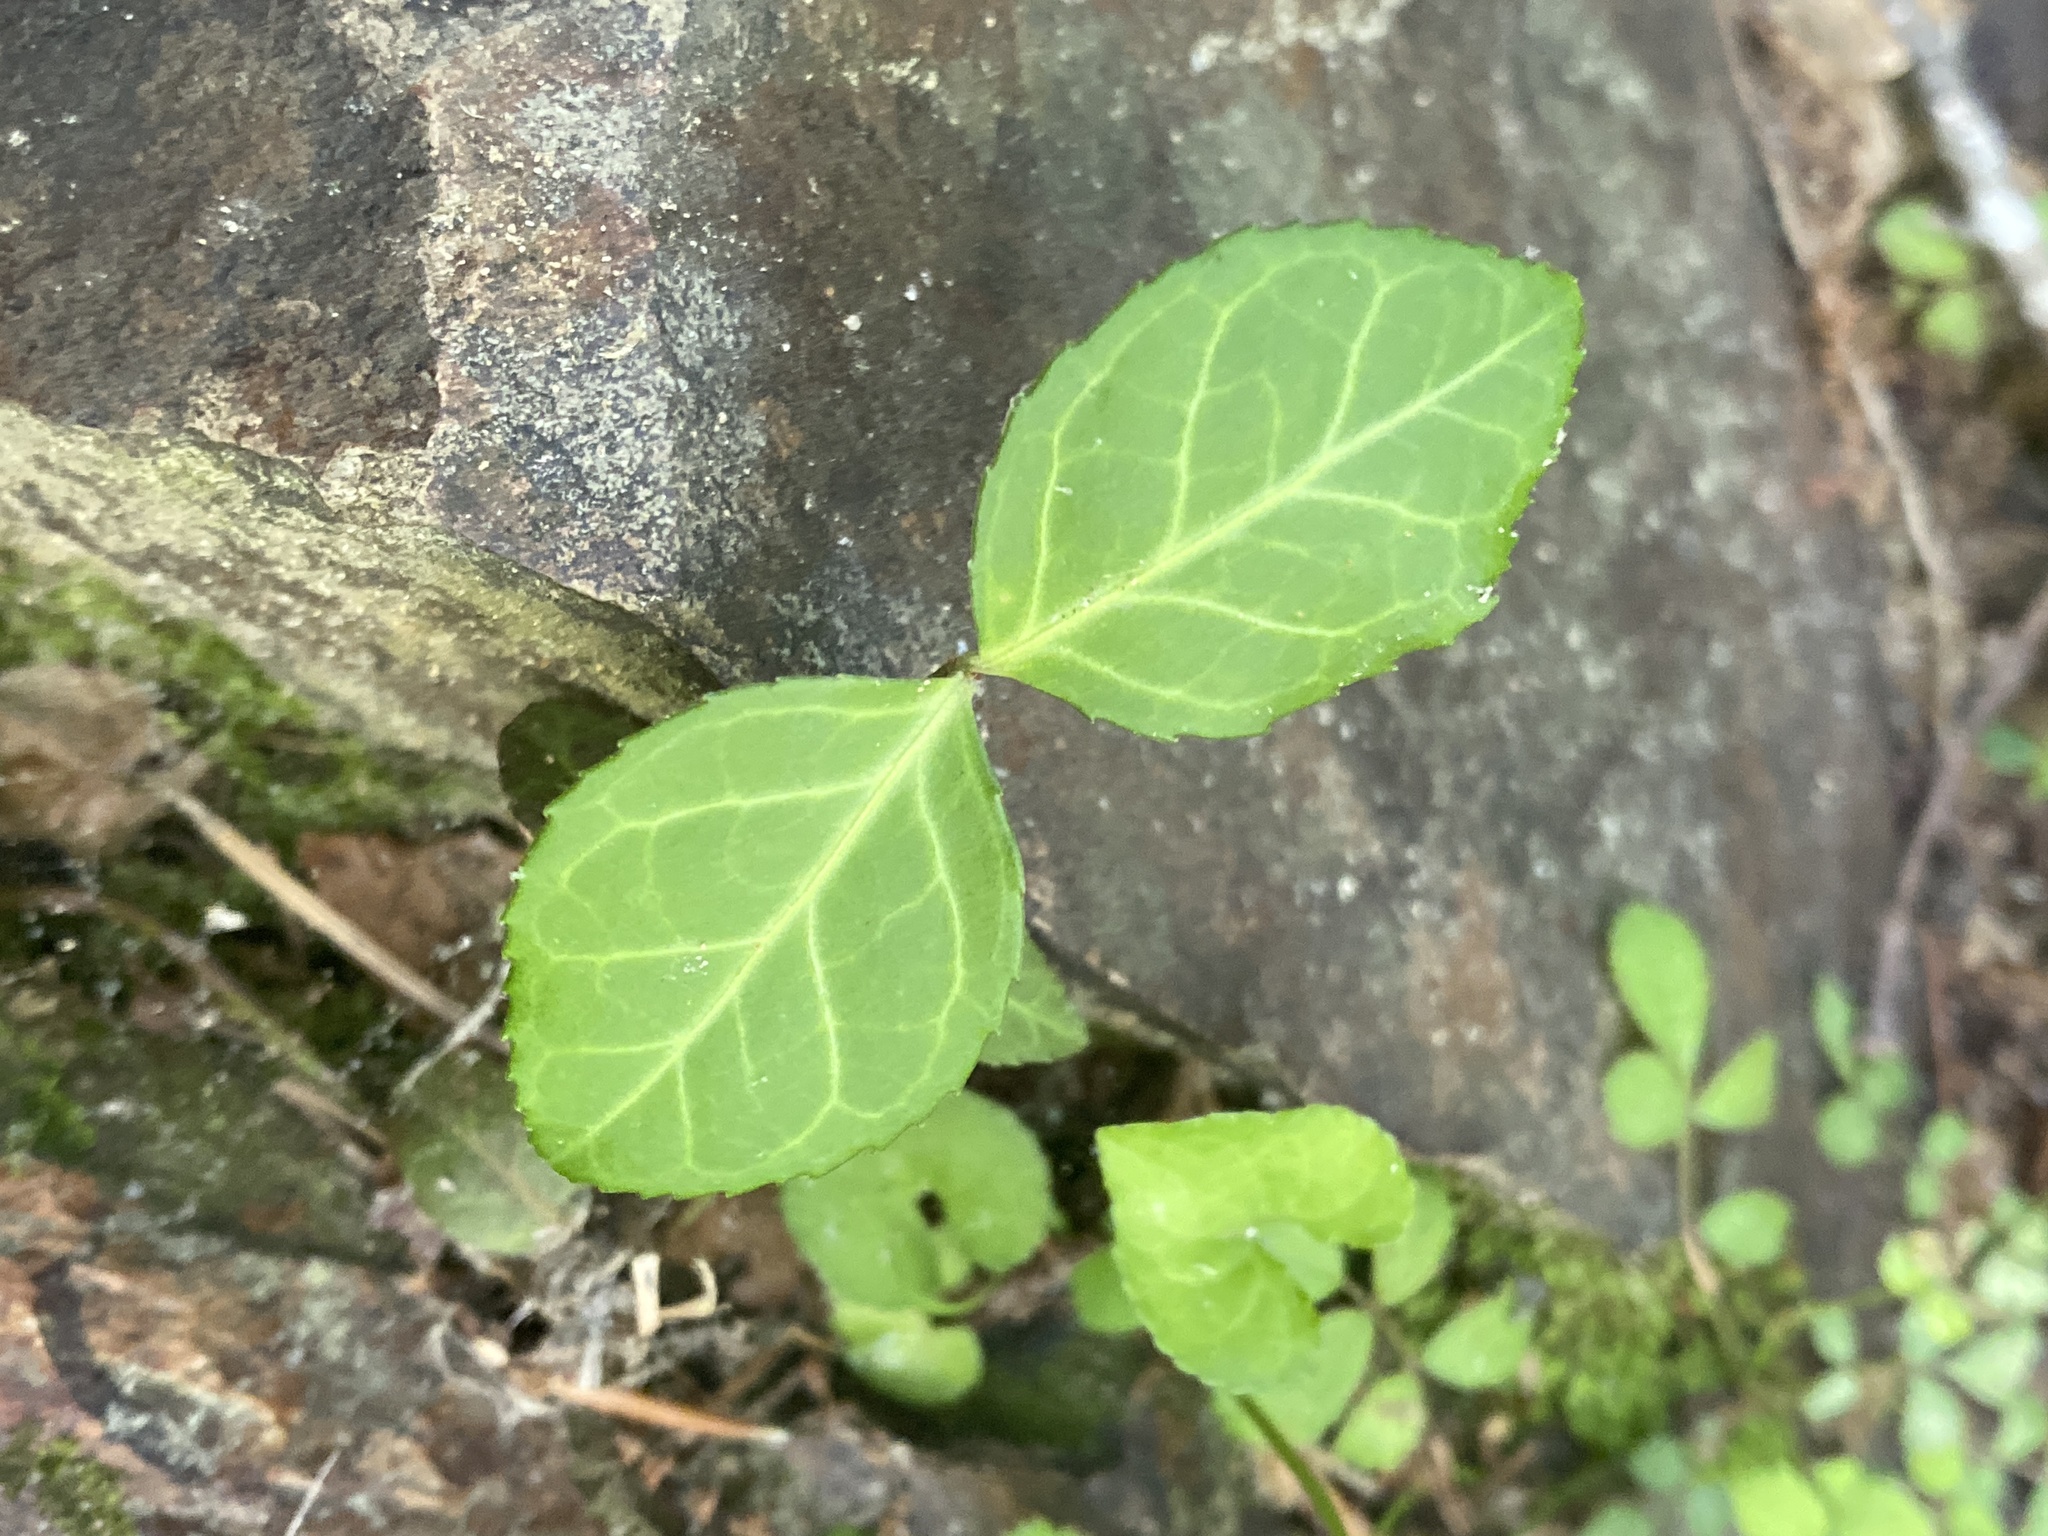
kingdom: Plantae
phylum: Tracheophyta
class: Magnoliopsida
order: Celastrales
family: Celastraceae
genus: Euonymus
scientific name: Euonymus fortunei
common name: Climbing euonymus
